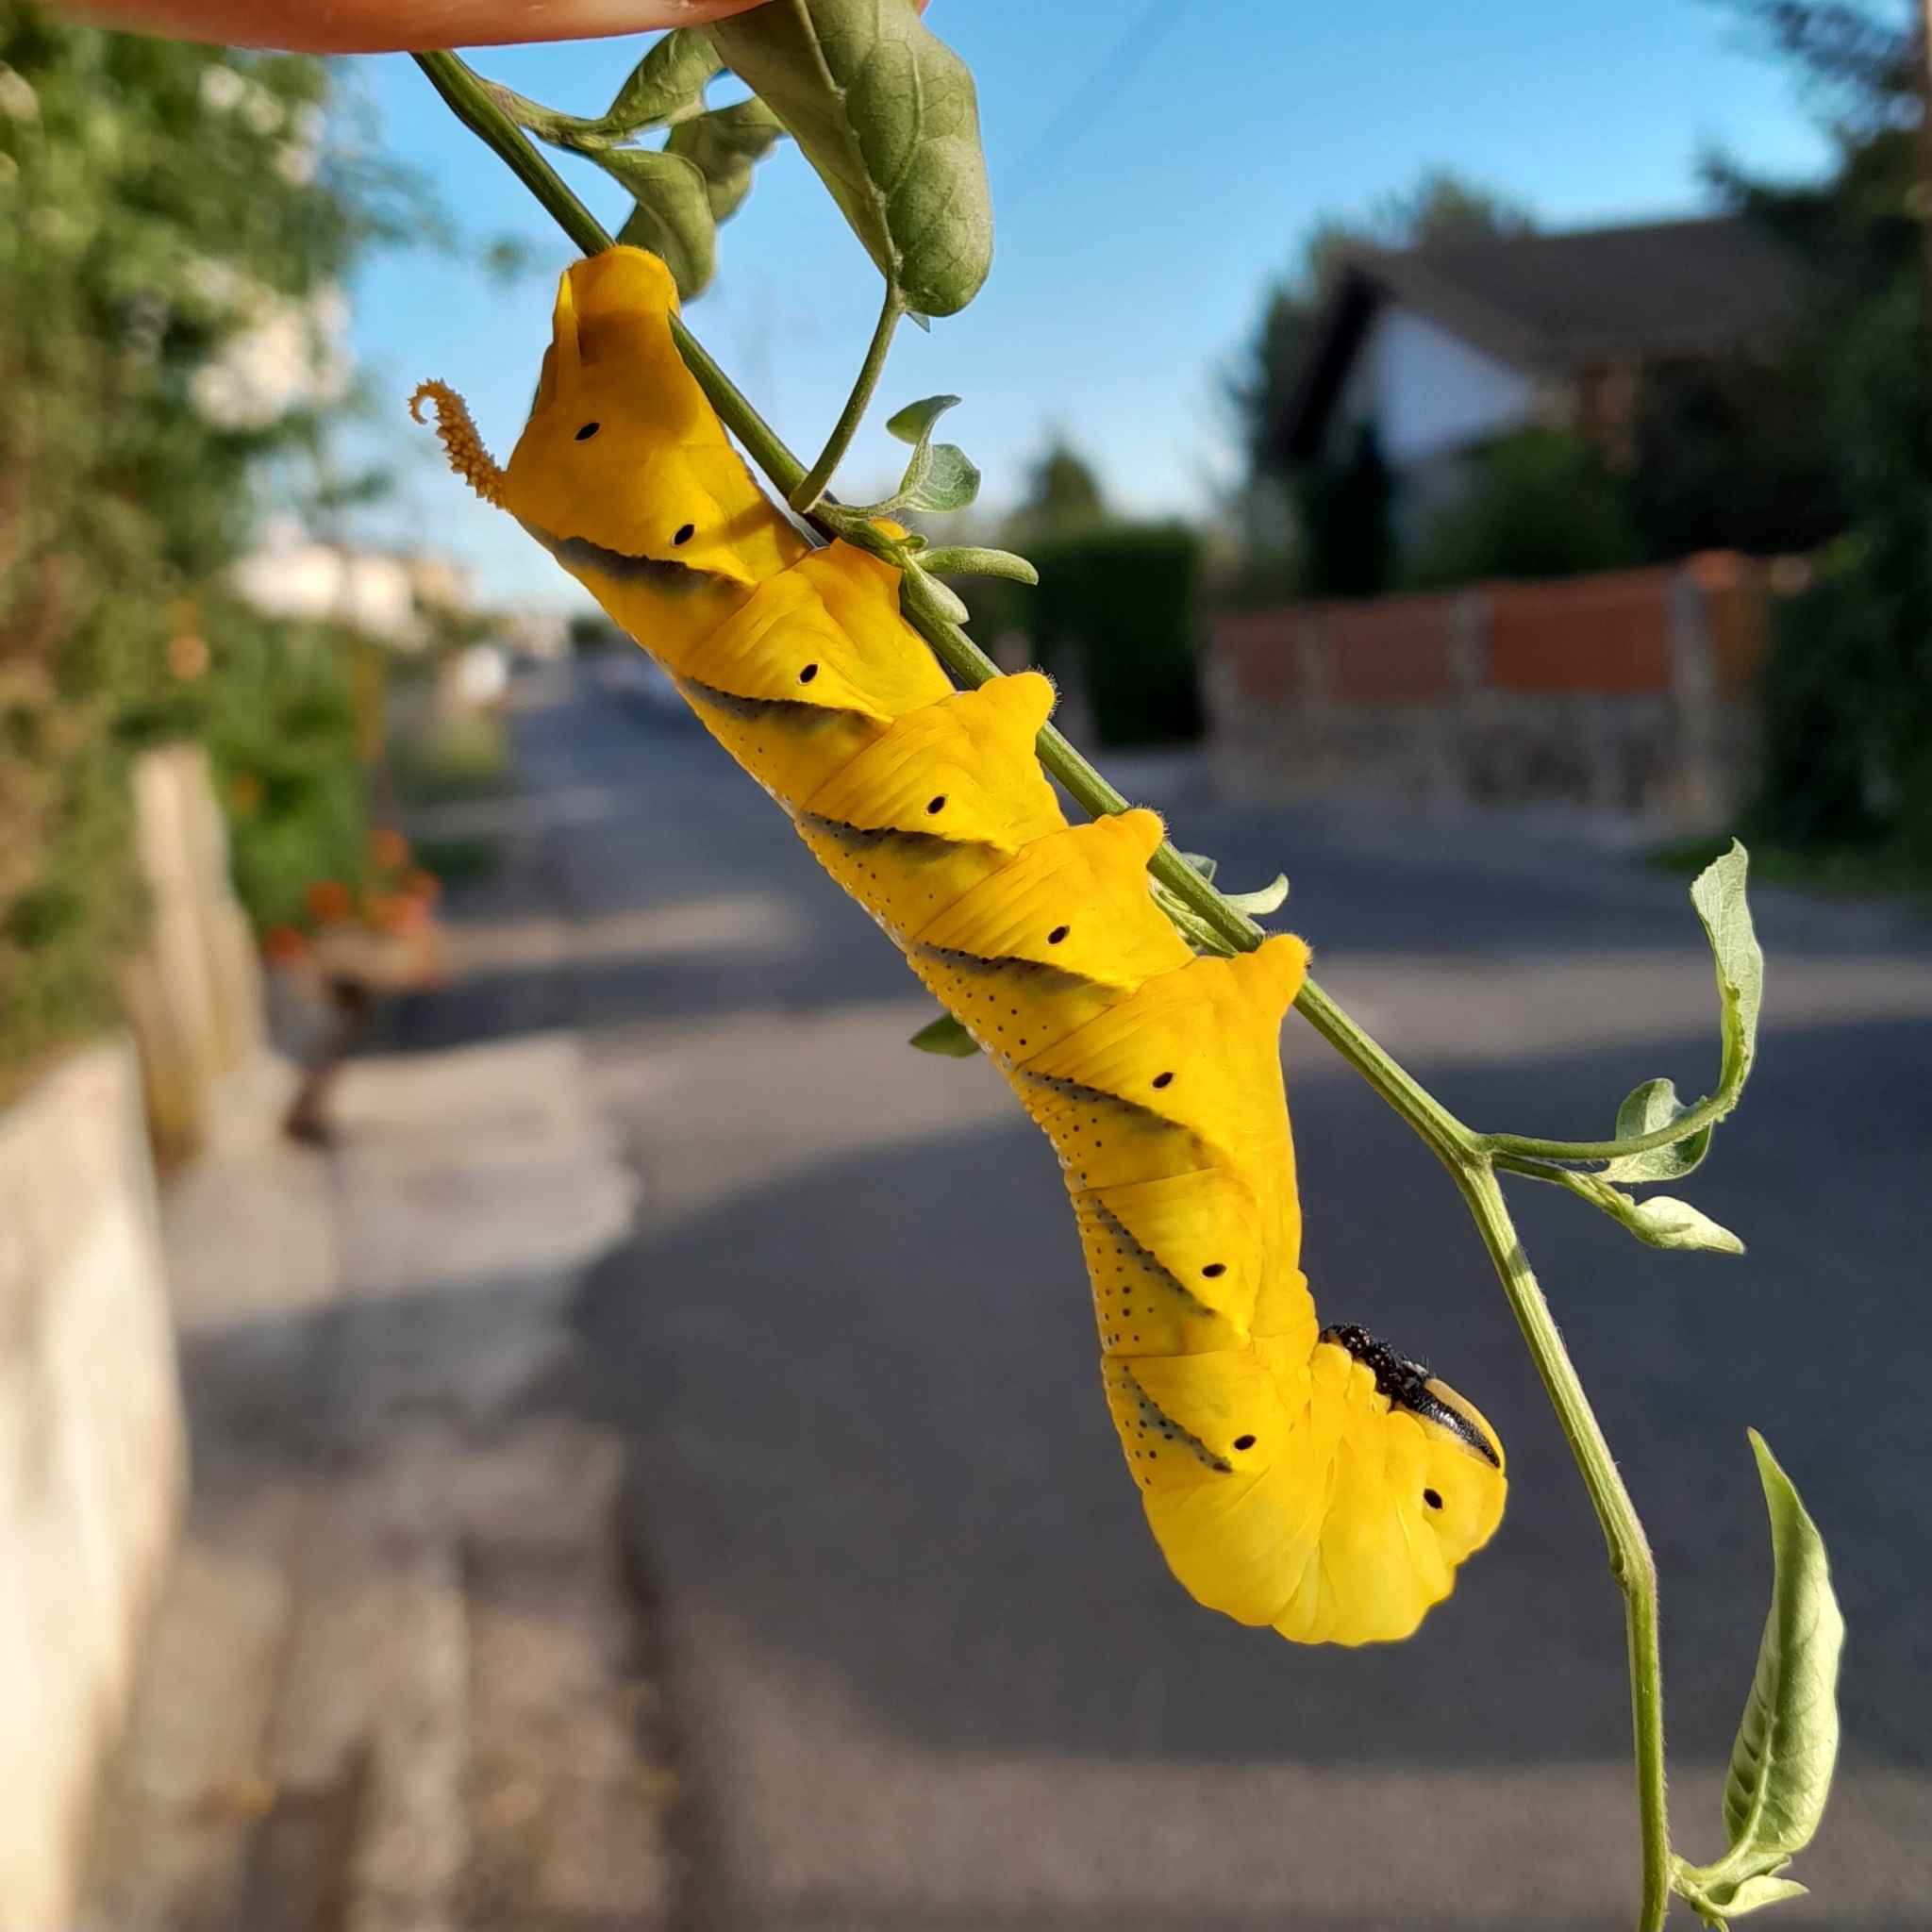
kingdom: Animalia
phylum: Arthropoda
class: Insecta
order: Lepidoptera
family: Sphingidae
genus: Acherontia
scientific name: Acherontia atropos
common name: Death's-head hawk moth
